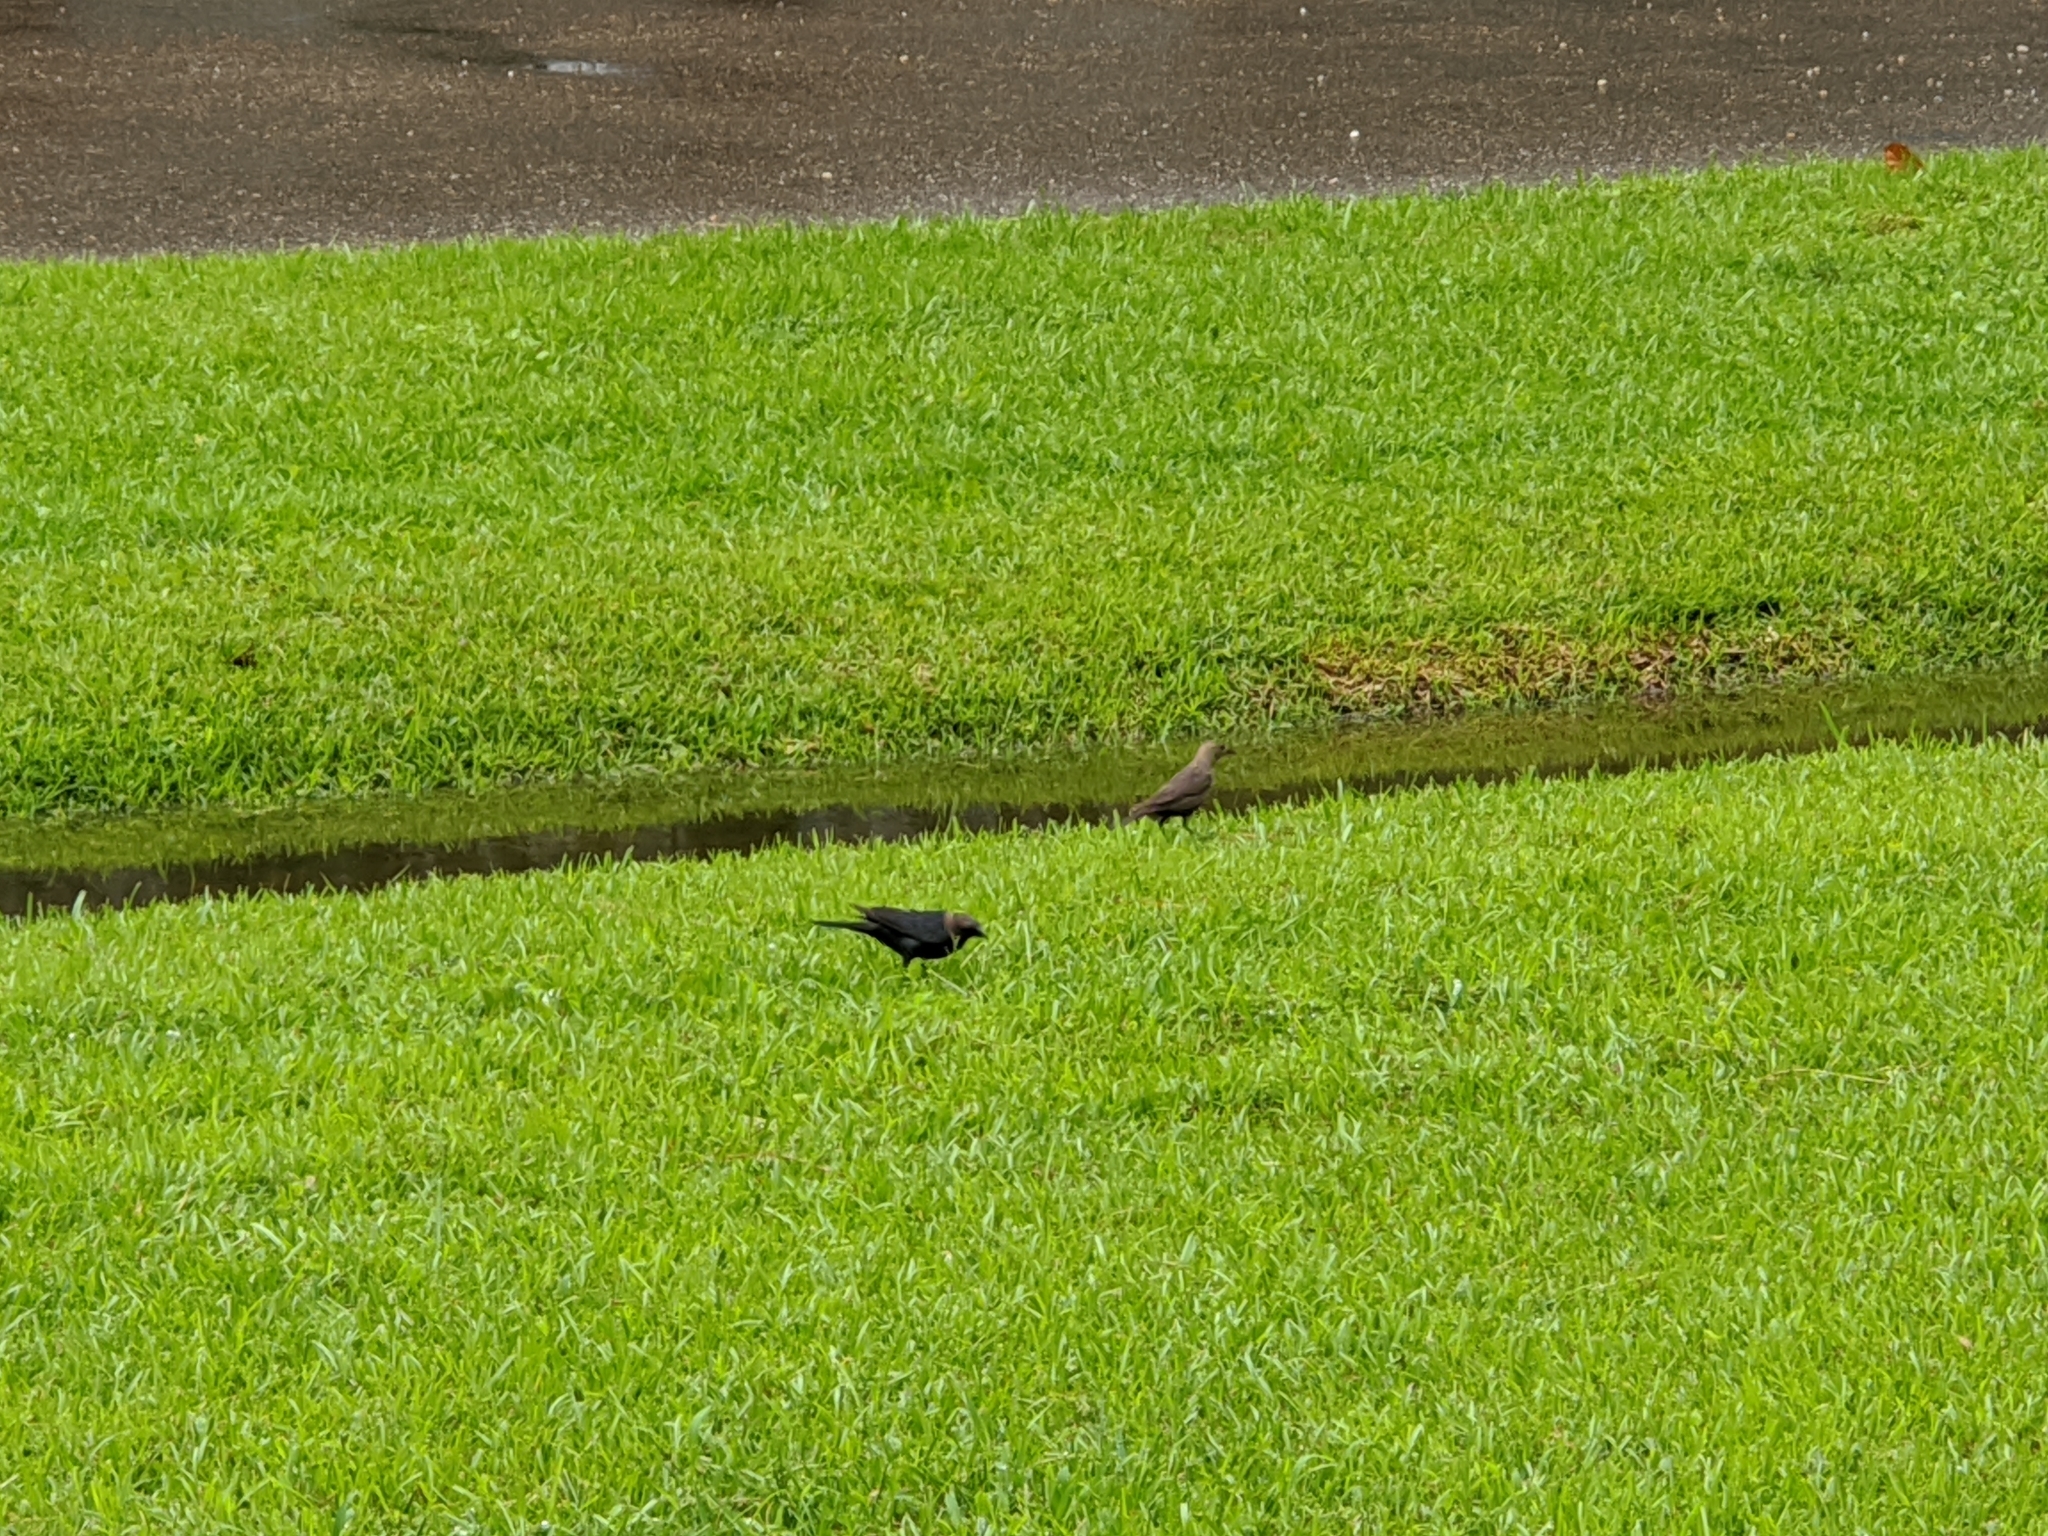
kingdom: Animalia
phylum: Chordata
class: Aves
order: Passeriformes
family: Icteridae
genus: Molothrus
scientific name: Molothrus ater
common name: Brown-headed cowbird
